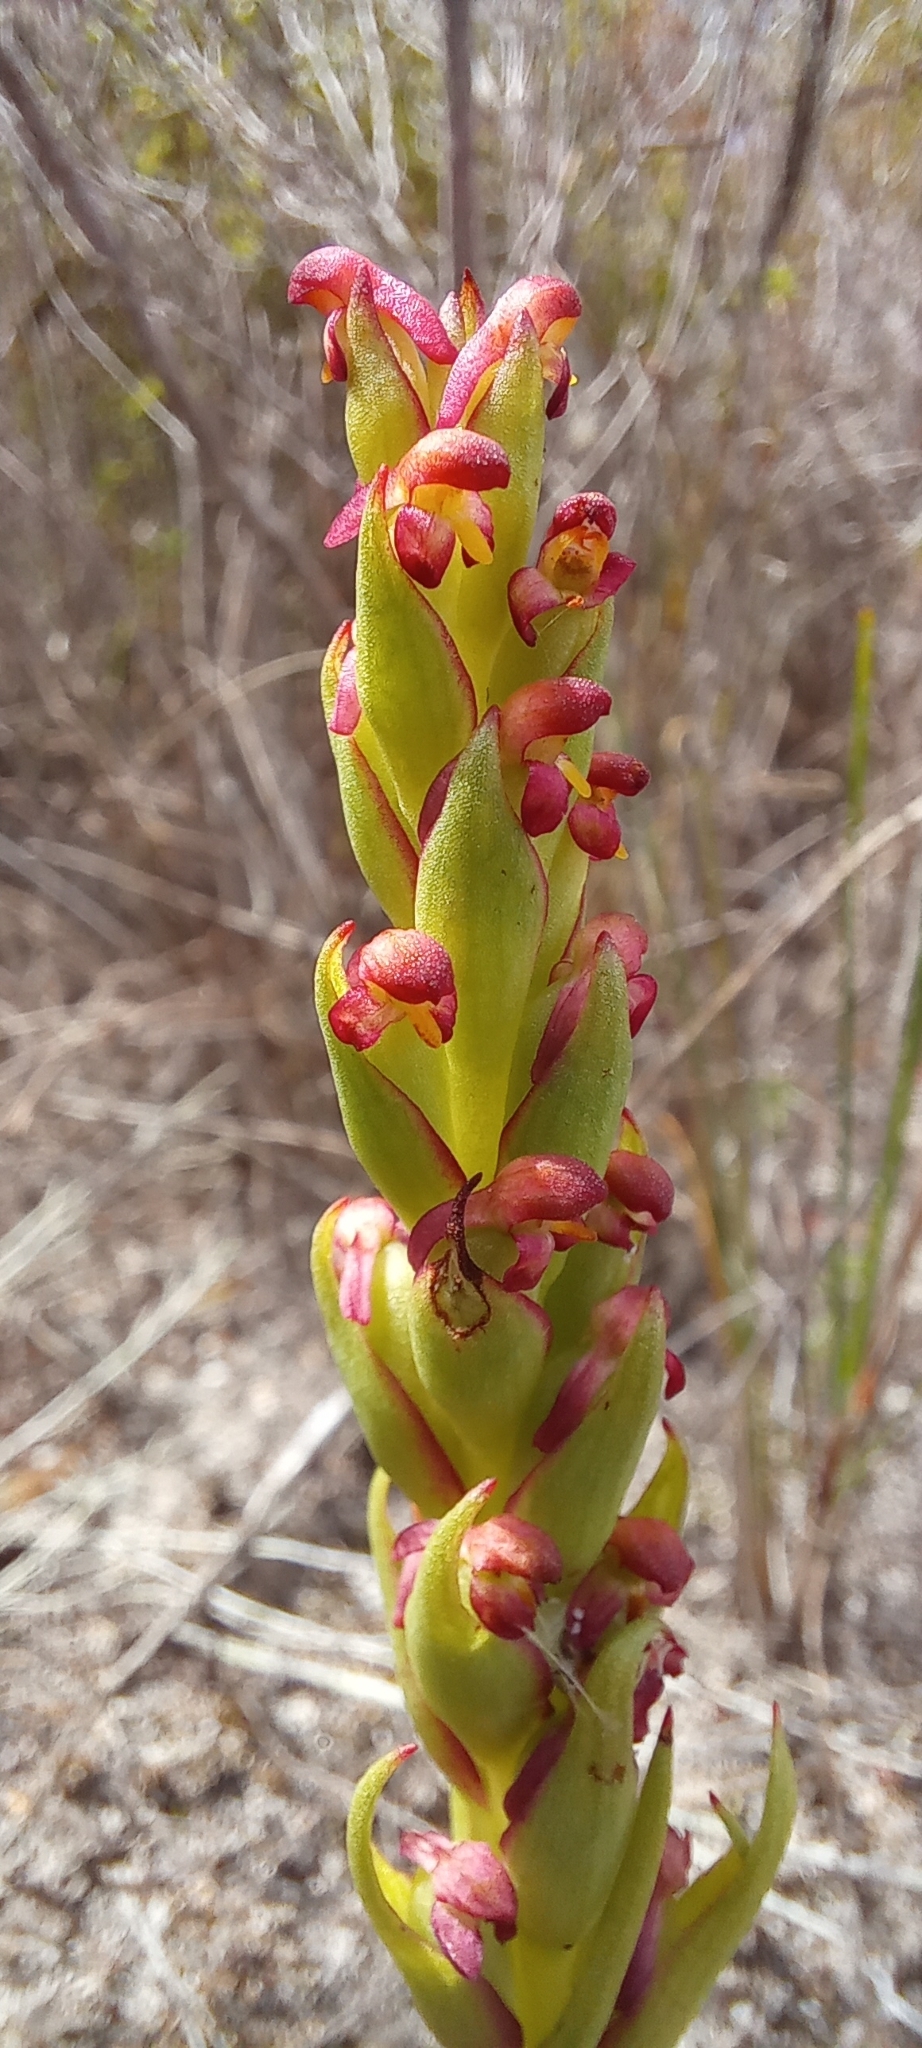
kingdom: Plantae
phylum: Tracheophyta
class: Liliopsida
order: Asparagales
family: Orchidaceae
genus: Disa
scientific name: Disa bracteata
